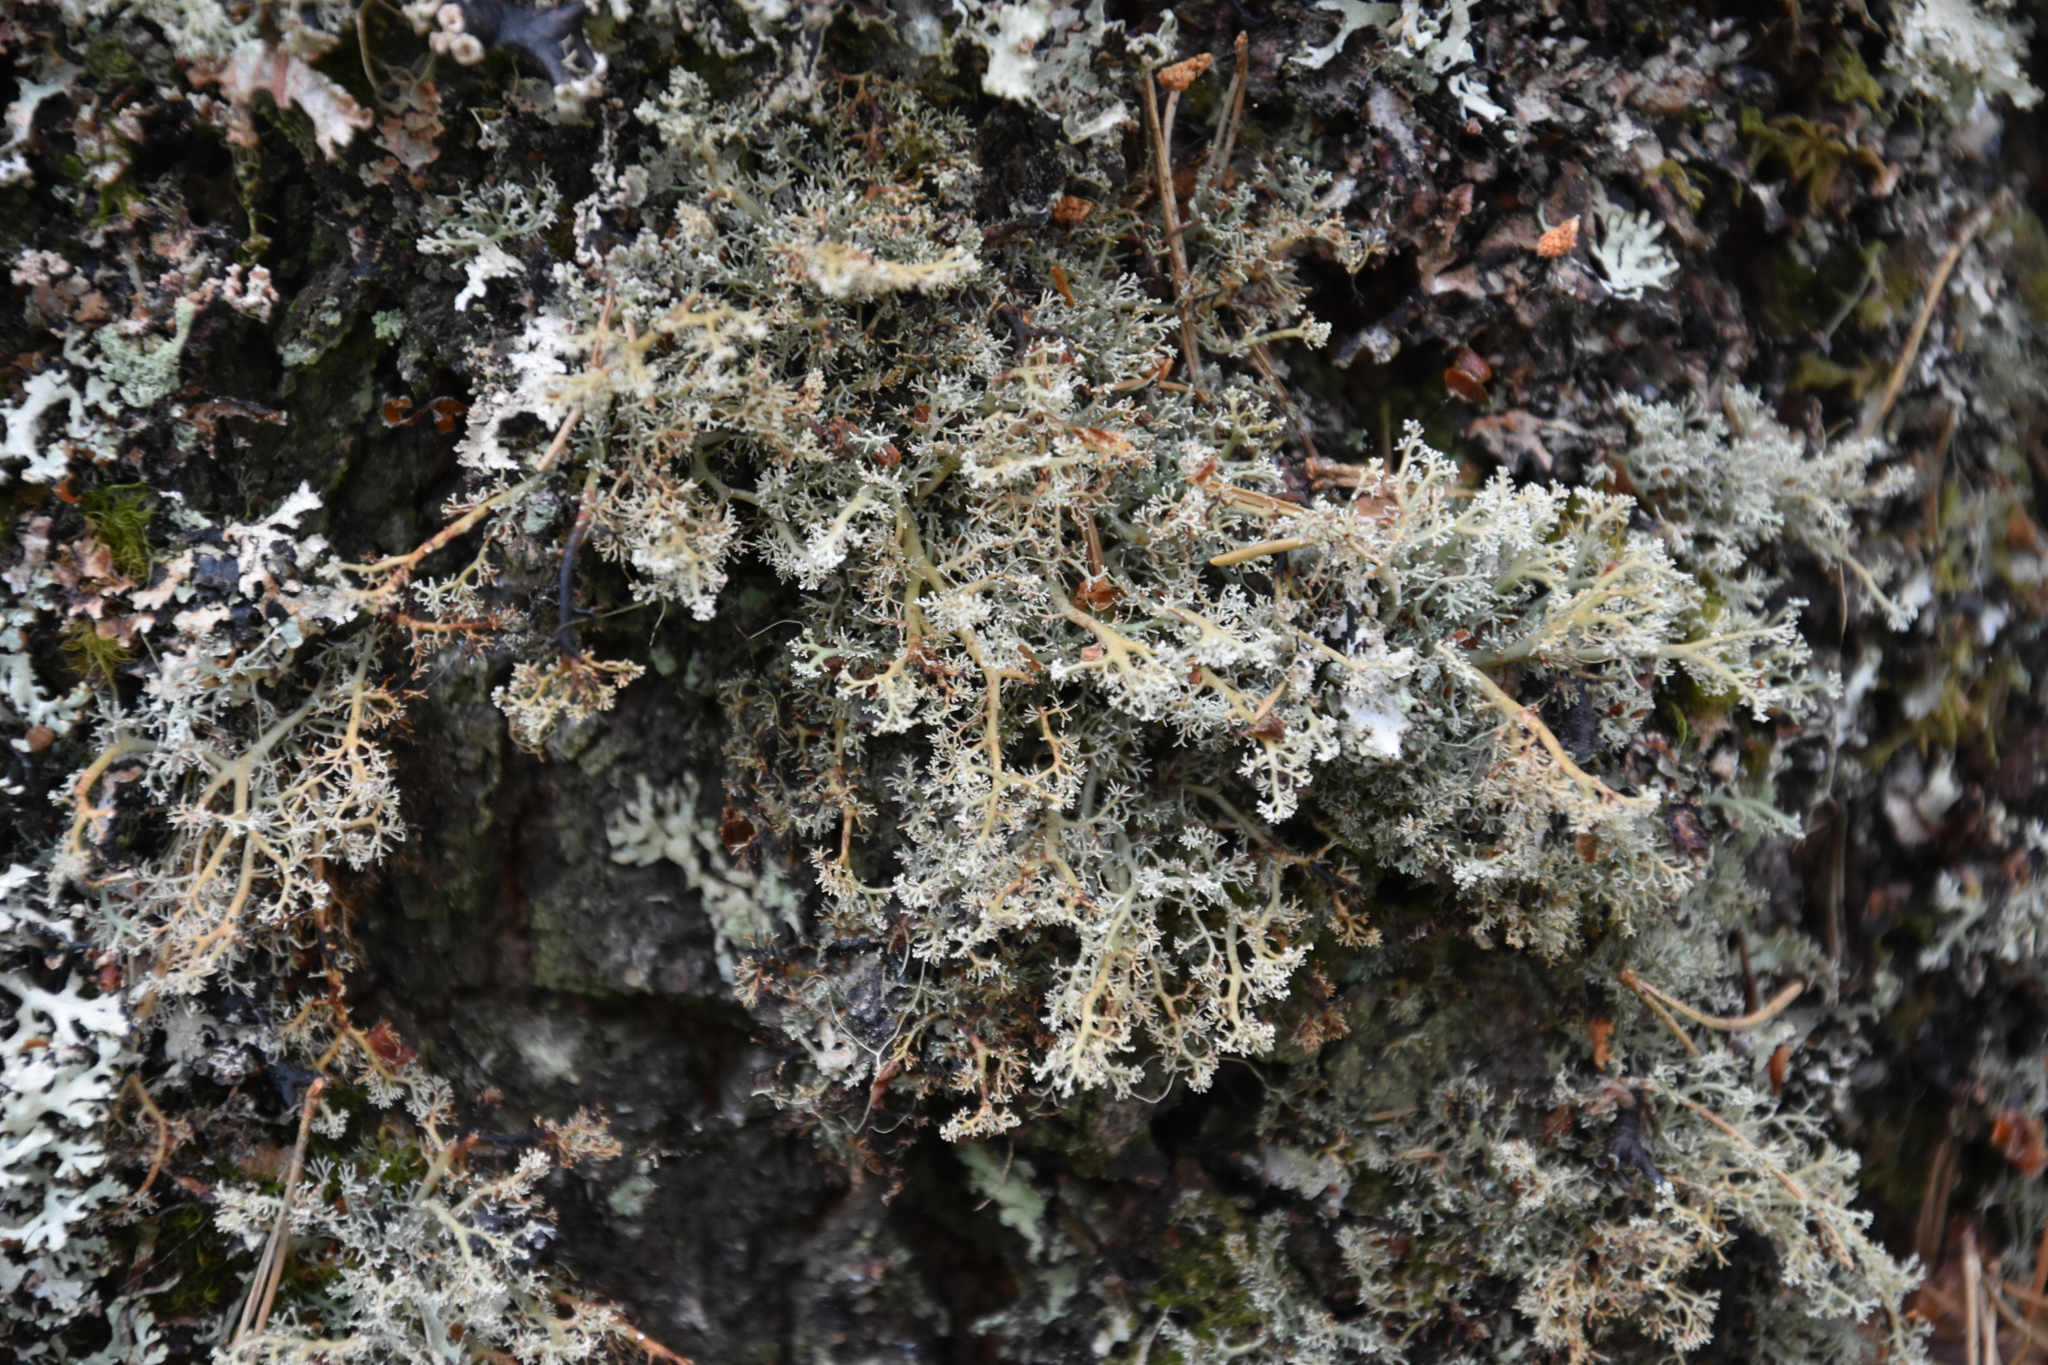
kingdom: Fungi
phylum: Ascomycota
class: Lecanoromycetes
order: Lecanorales
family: Sphaerophoraceae
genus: Sphaerophorus
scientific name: Sphaerophorus globosus
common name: Globe ball lichen
